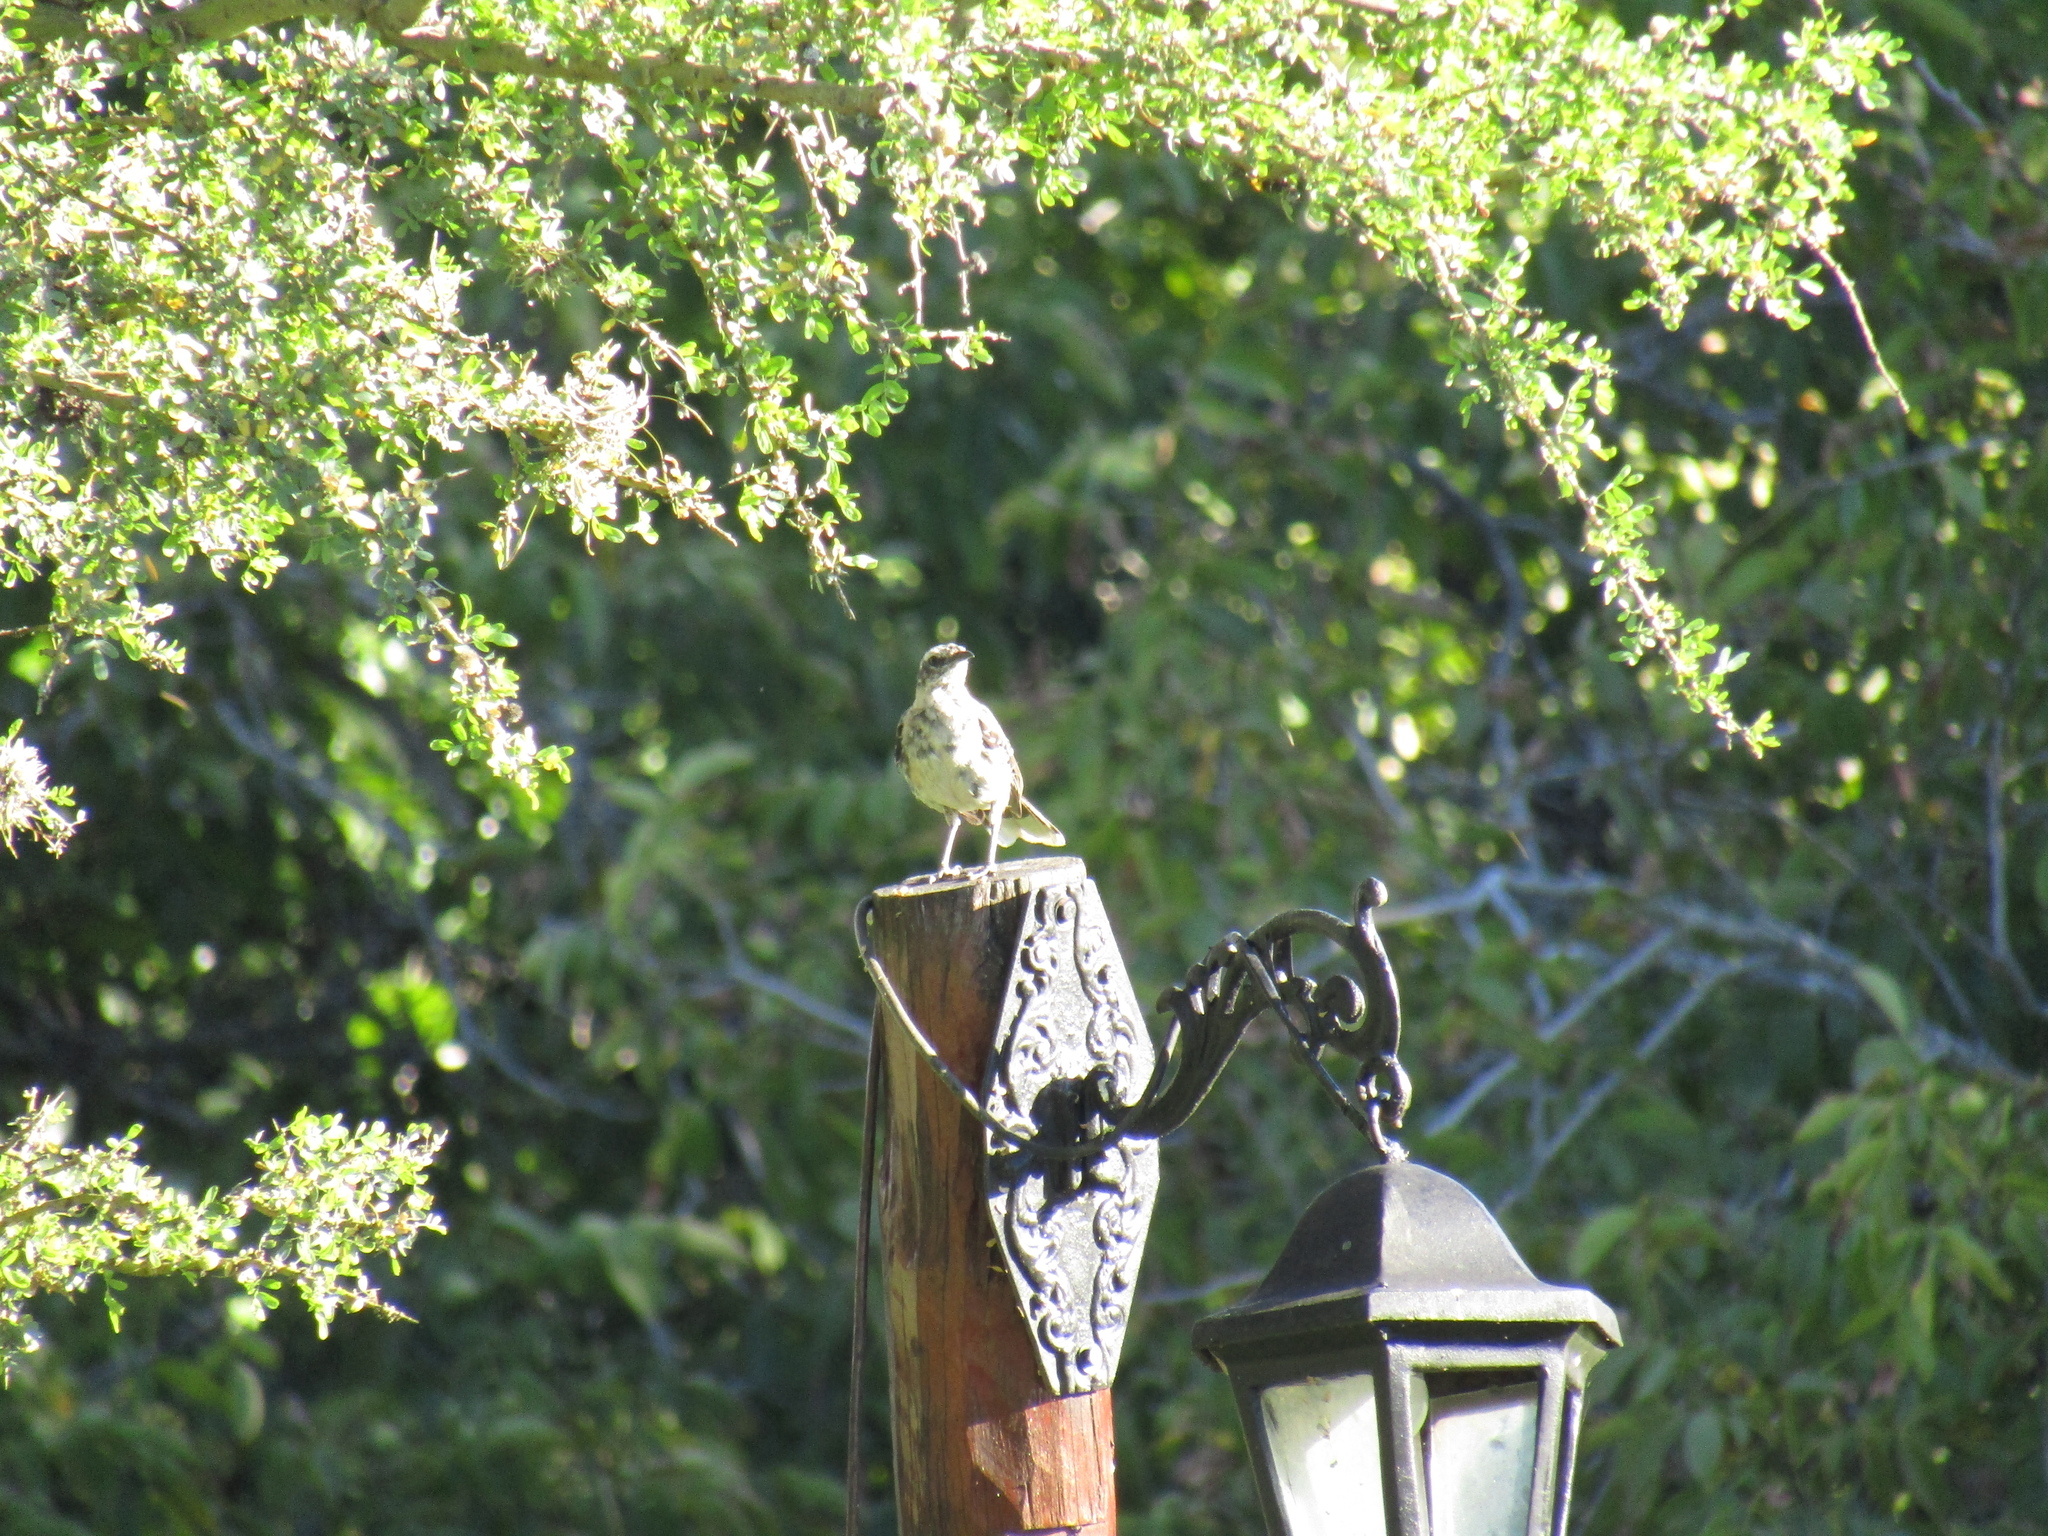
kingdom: Animalia
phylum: Chordata
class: Aves
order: Passeriformes
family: Mimidae
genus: Mimus
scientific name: Mimus saturninus
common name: Chalk-browed mockingbird
